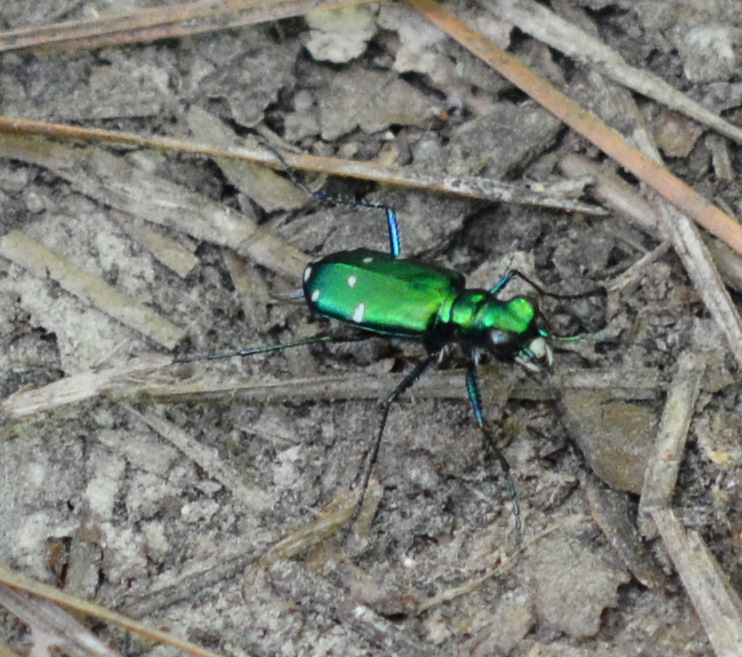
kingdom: Animalia
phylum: Arthropoda
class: Insecta
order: Coleoptera
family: Carabidae
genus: Cicindela
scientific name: Cicindela sexguttata
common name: Six-spotted tiger beetle
